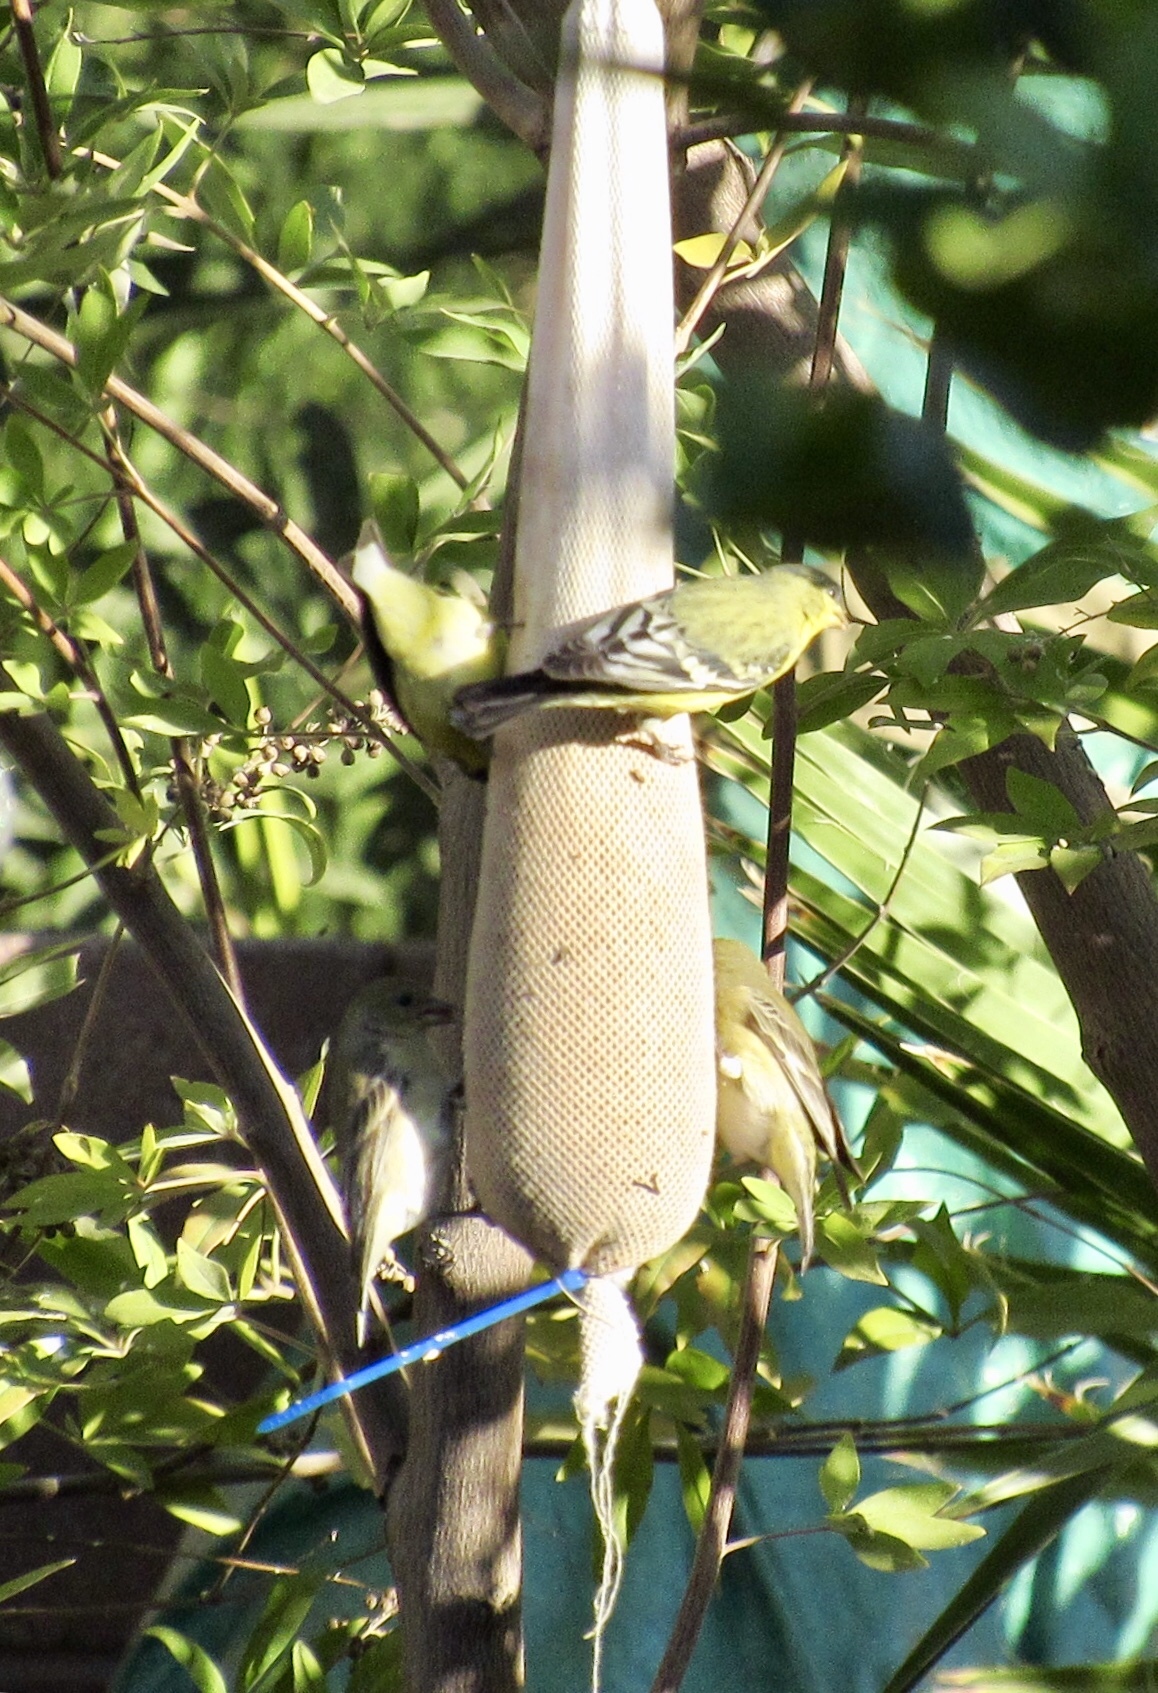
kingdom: Animalia
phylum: Chordata
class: Aves
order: Passeriformes
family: Fringillidae
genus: Spinus
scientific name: Spinus psaltria
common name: Lesser goldfinch
